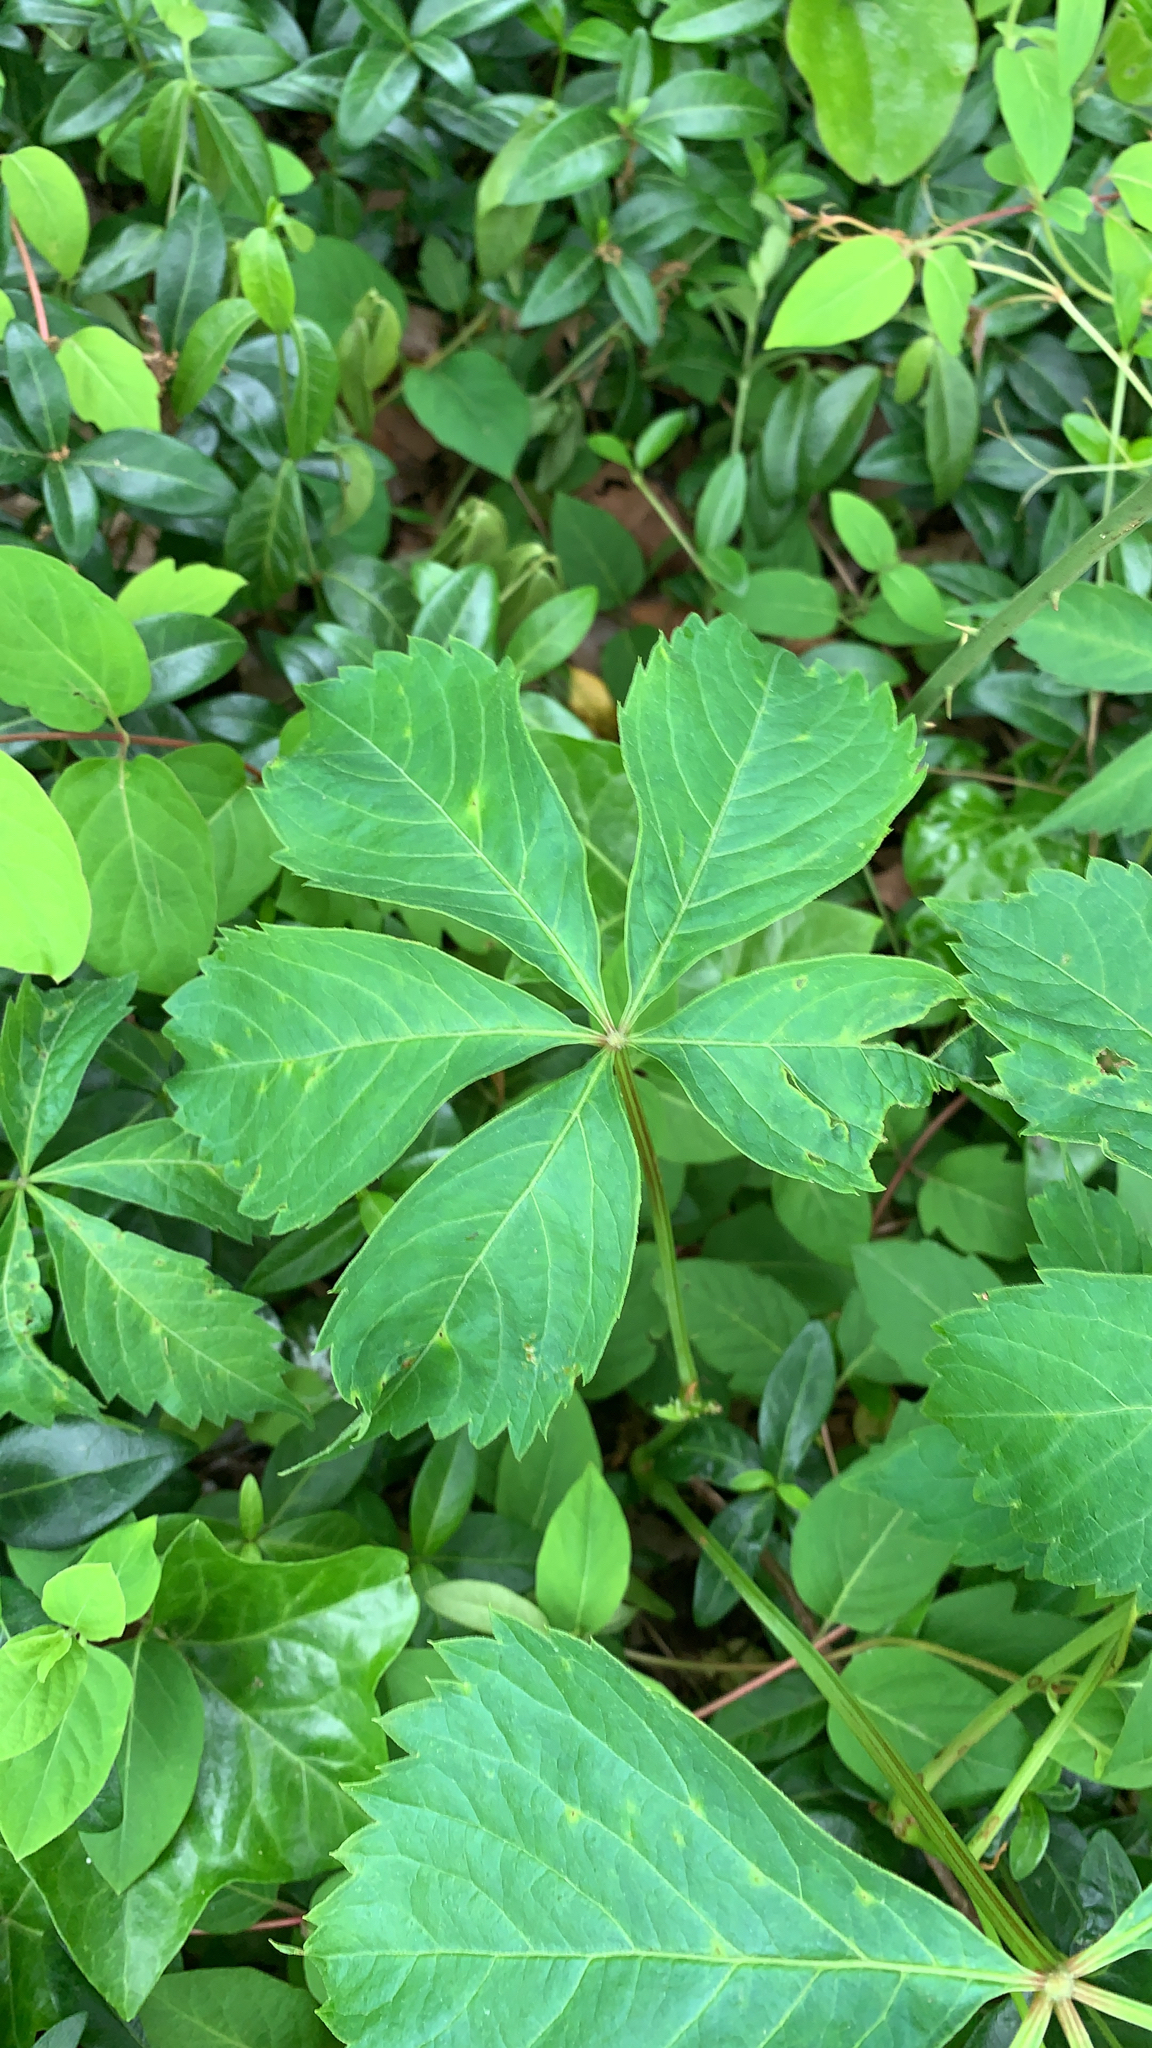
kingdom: Plantae
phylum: Tracheophyta
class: Magnoliopsida
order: Vitales
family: Vitaceae
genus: Parthenocissus
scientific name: Parthenocissus quinquefolia
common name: Virginia-creeper
